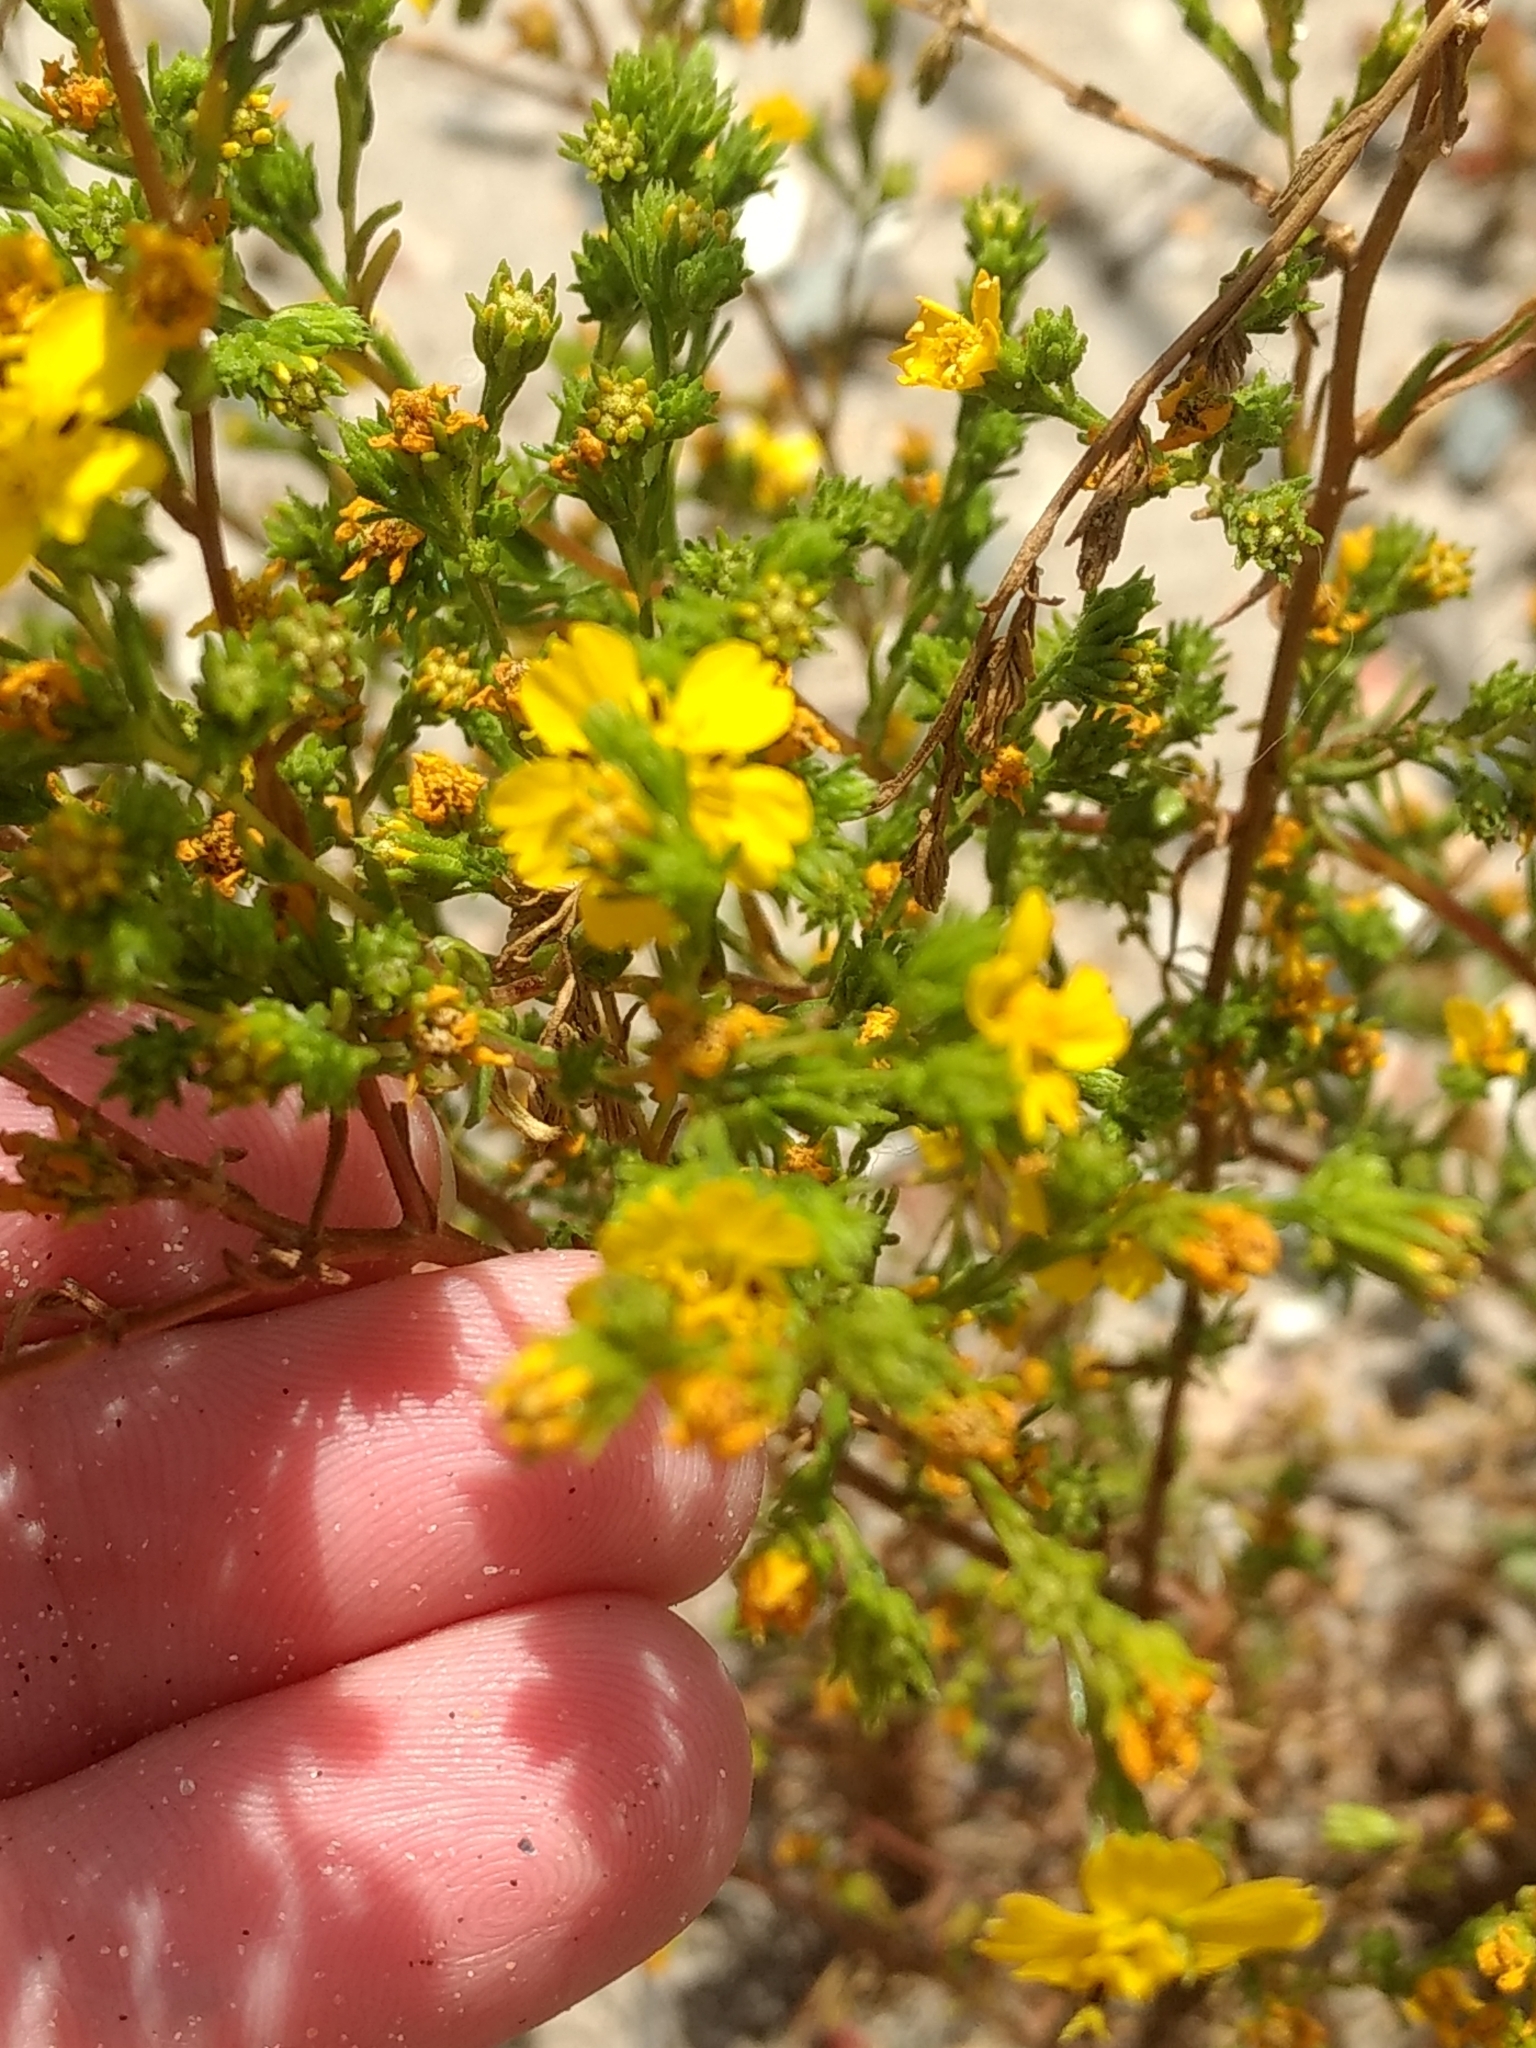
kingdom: Plantae
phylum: Tracheophyta
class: Magnoliopsida
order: Asterales
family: Asteraceae
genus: Deinandra
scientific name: Deinandra fasciculata
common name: Clustered tarweed
